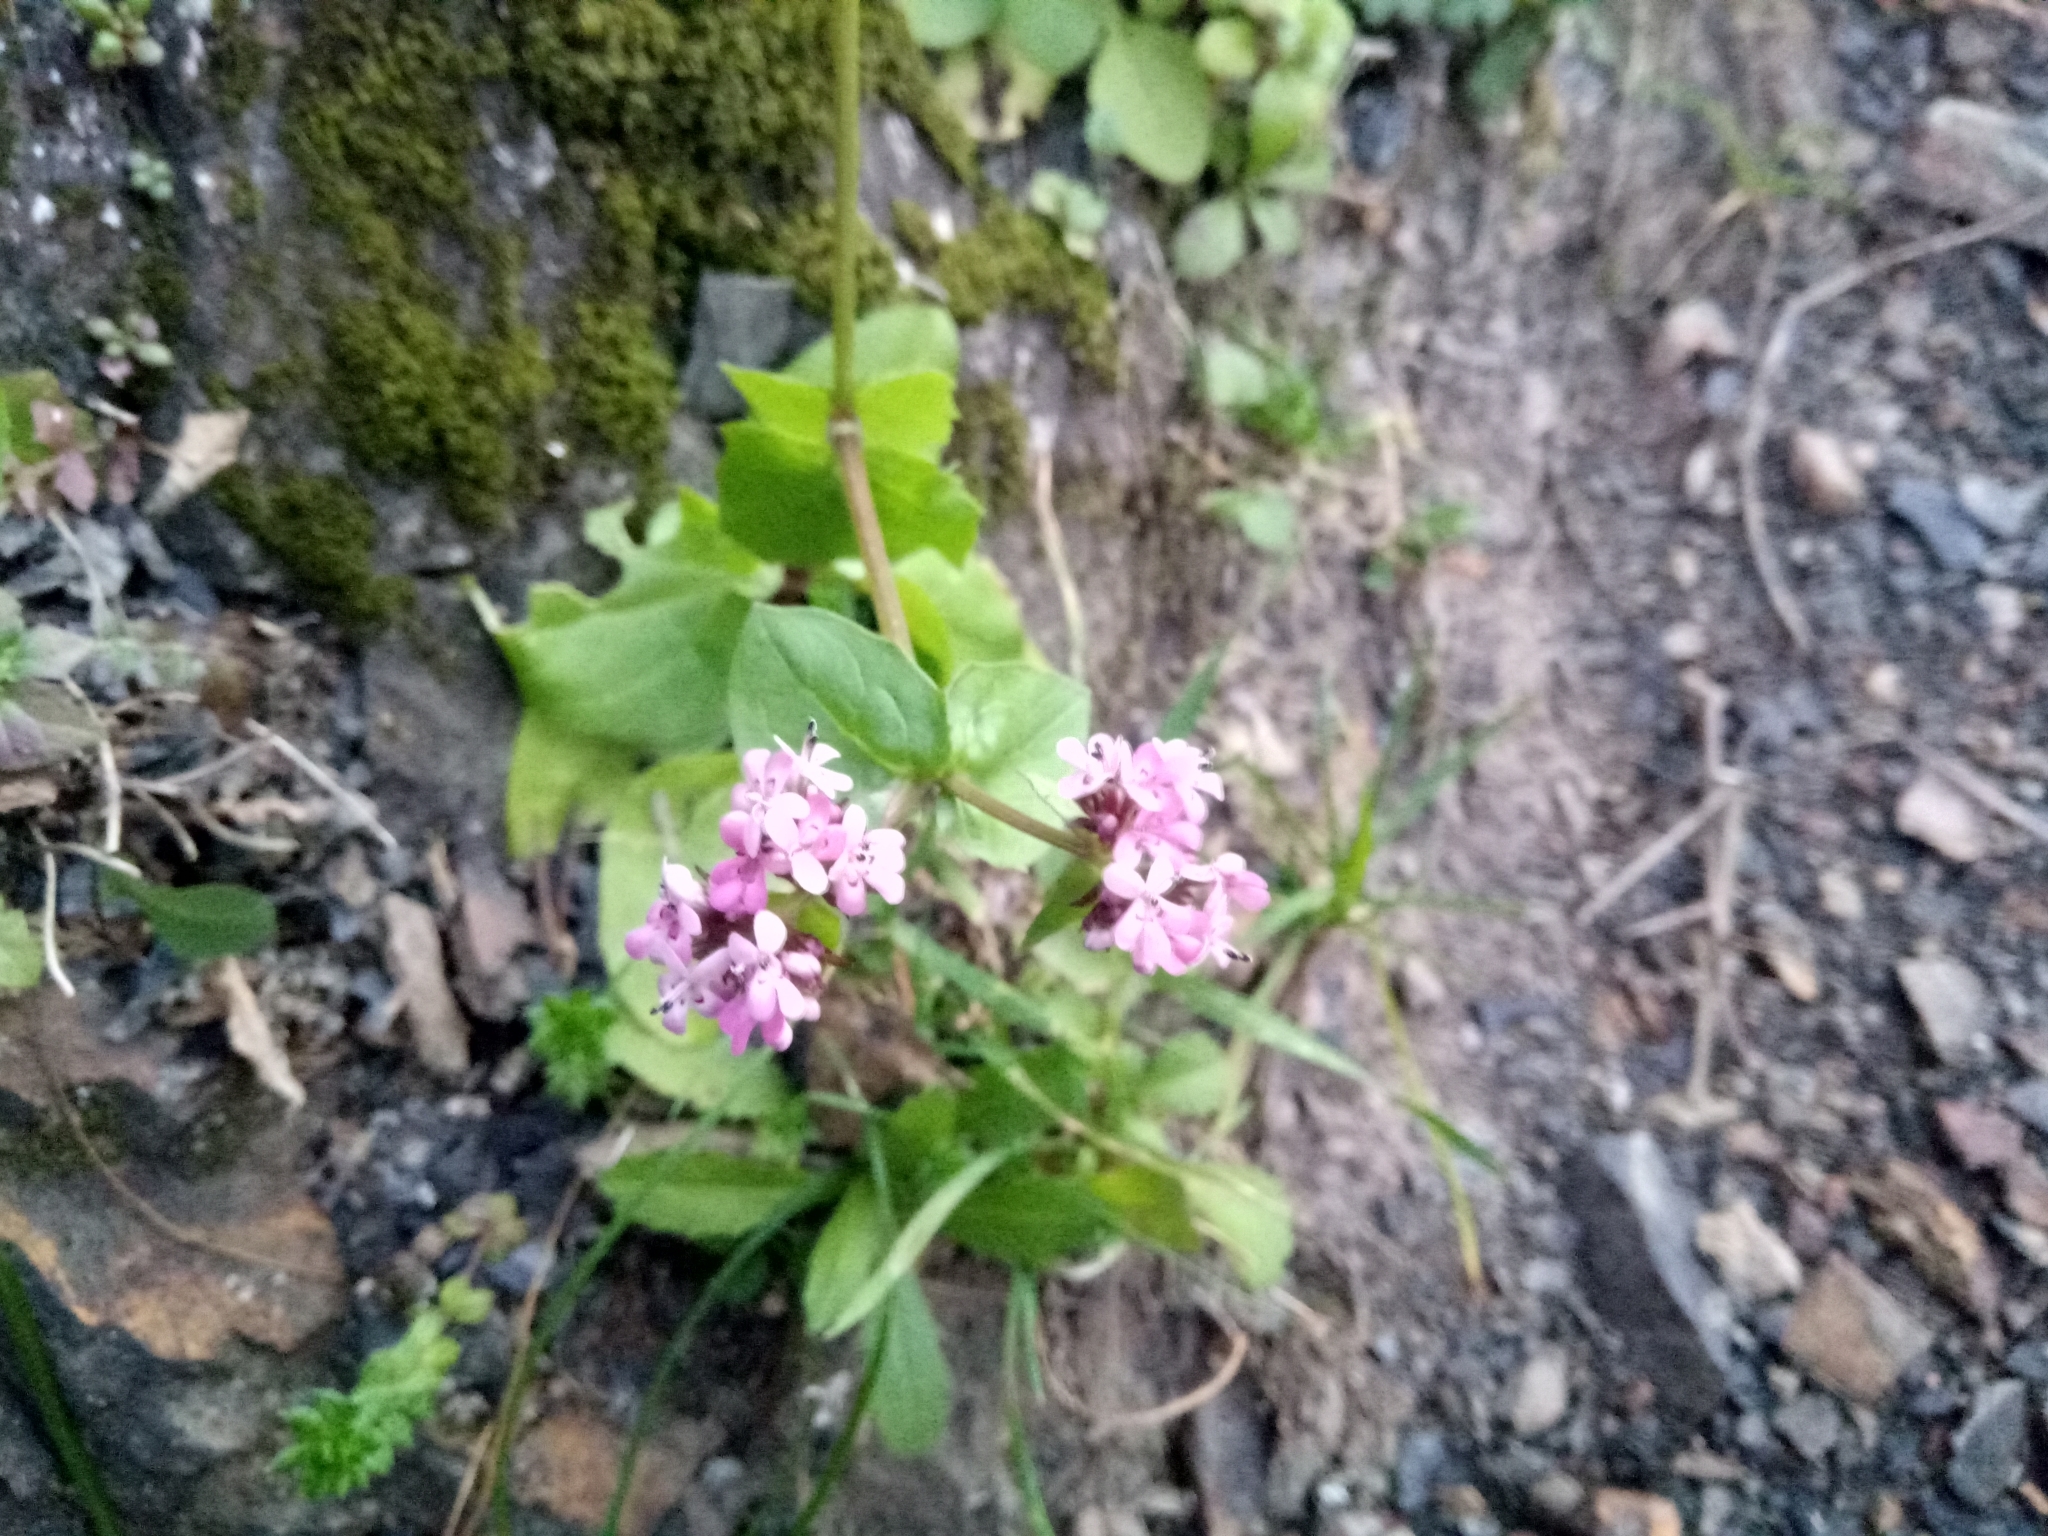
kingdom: Plantae
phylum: Tracheophyta
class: Magnoliopsida
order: Dipsacales
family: Caprifoliaceae
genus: Fedia
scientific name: Fedia graciliflora
